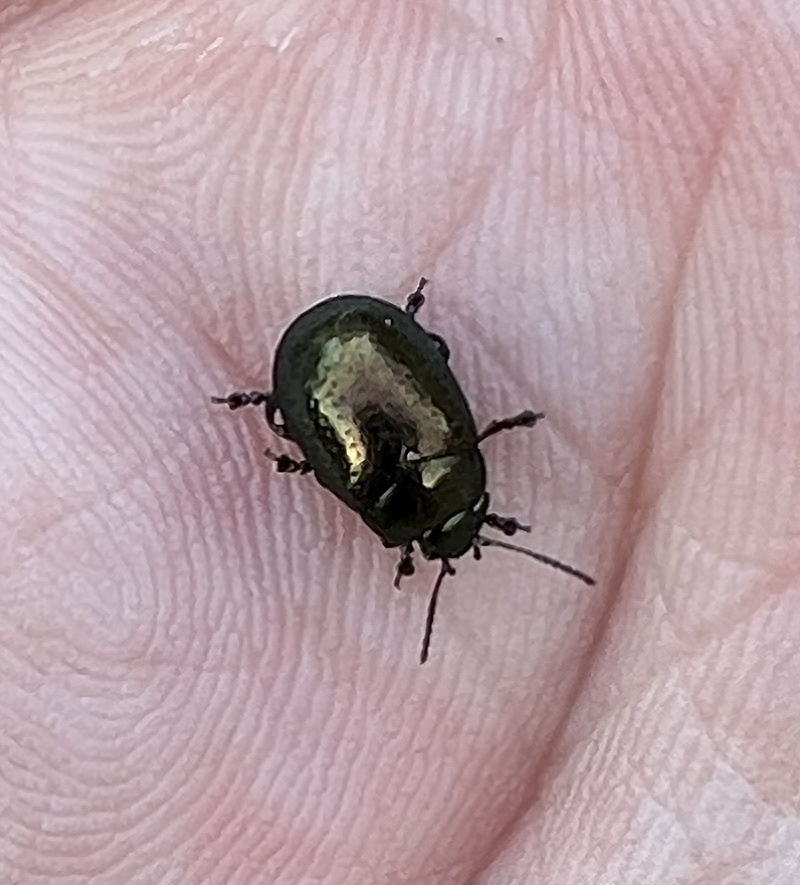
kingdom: Animalia
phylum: Arthropoda
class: Insecta
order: Coleoptera
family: Chrysomelidae
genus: Chrysolina
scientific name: Chrysolina hyperici
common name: St. johnswort beetle
